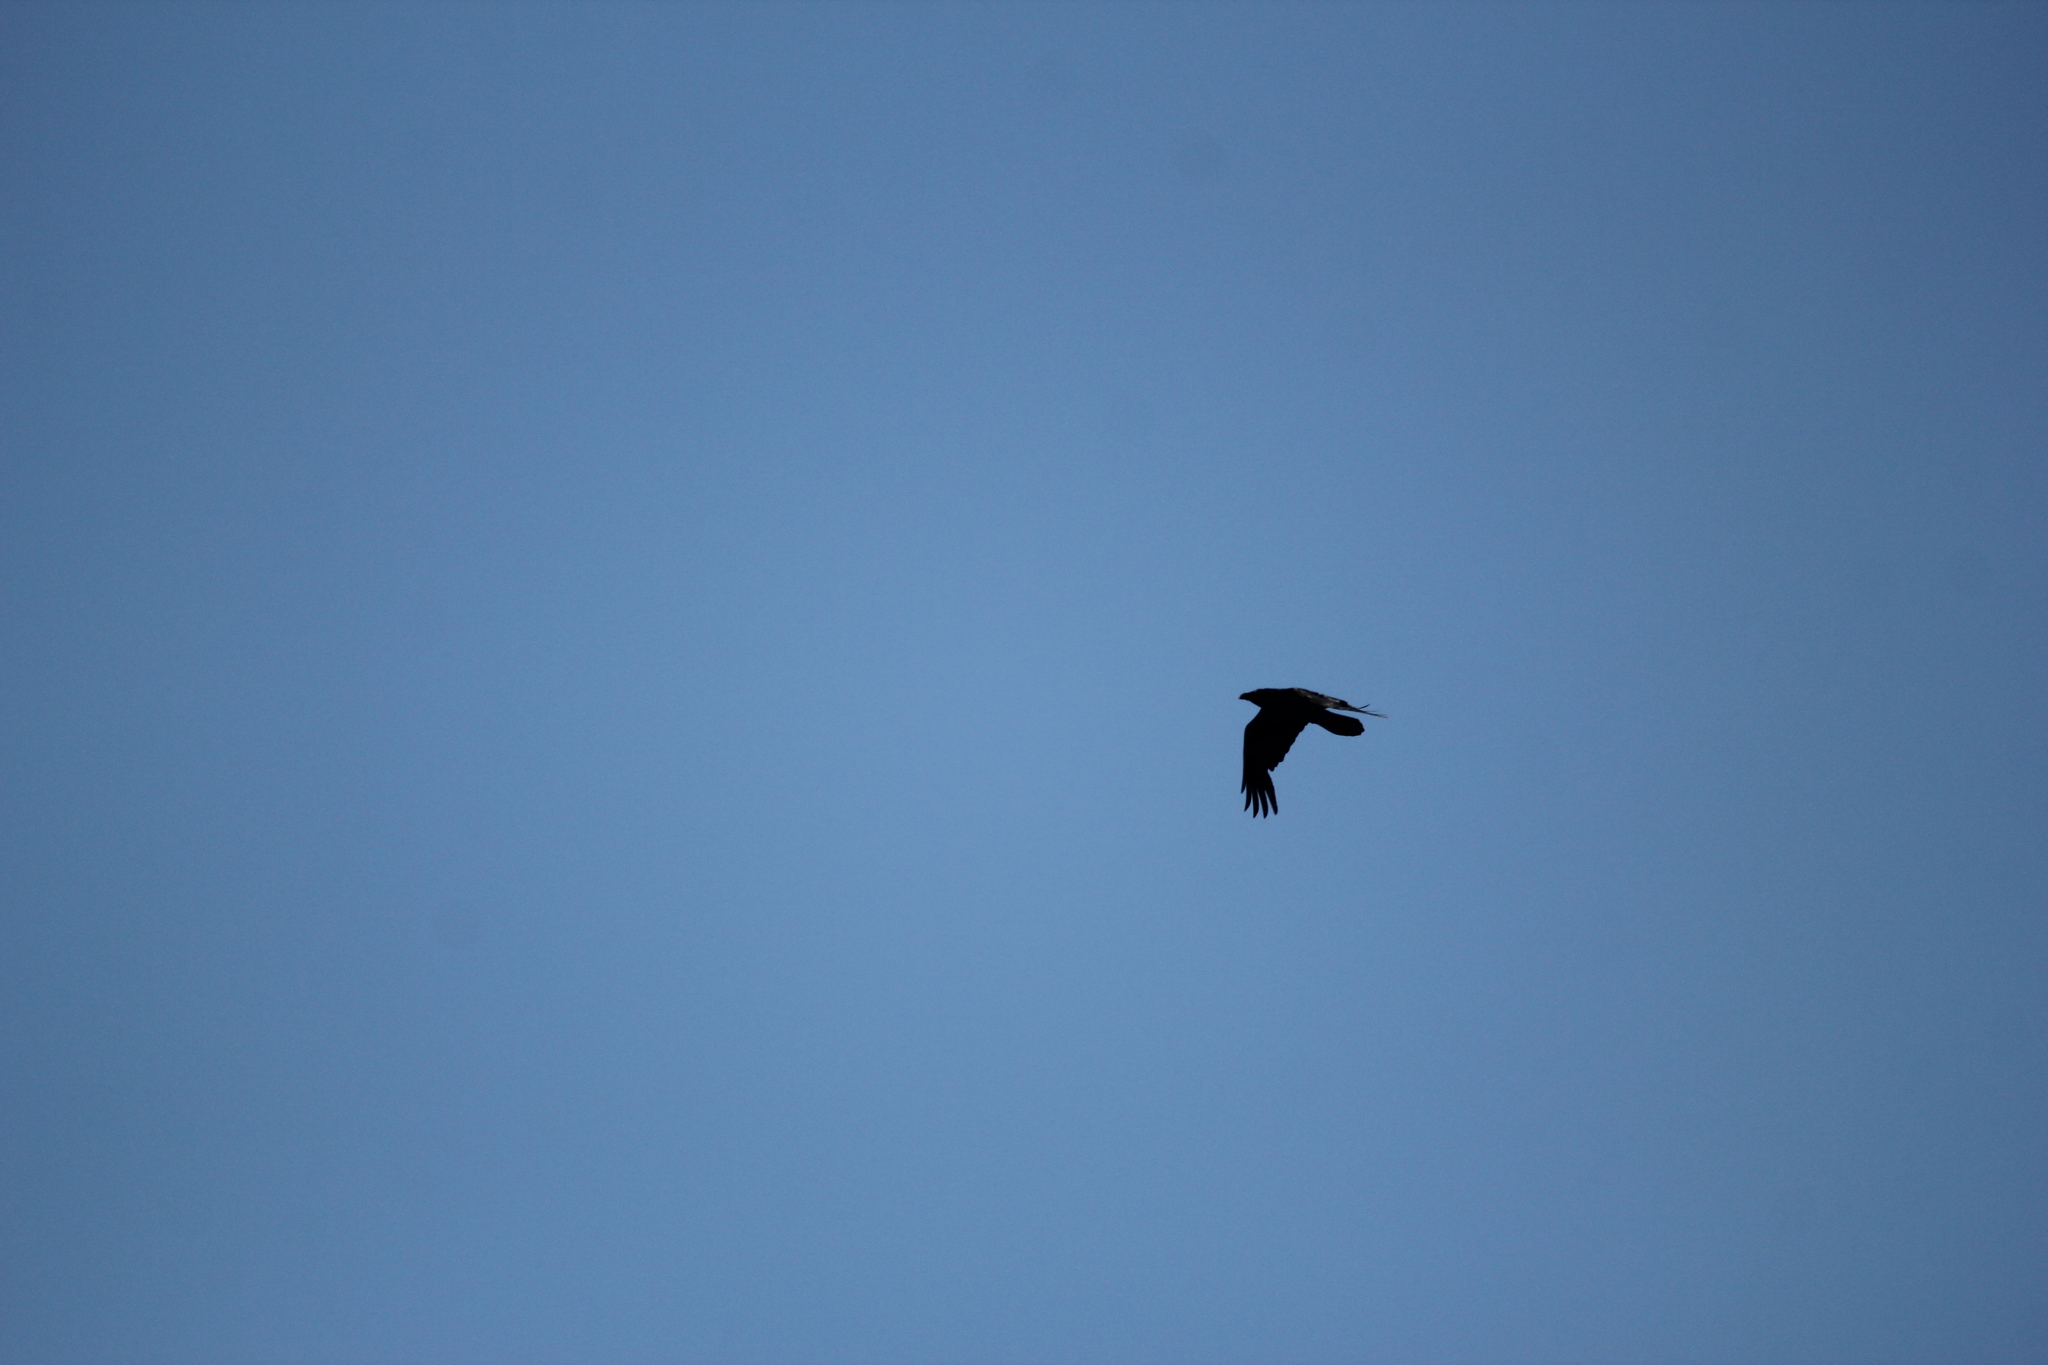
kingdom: Animalia
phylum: Chordata
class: Aves
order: Passeriformes
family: Corvidae
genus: Corvus
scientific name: Corvus corax
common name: Common raven
